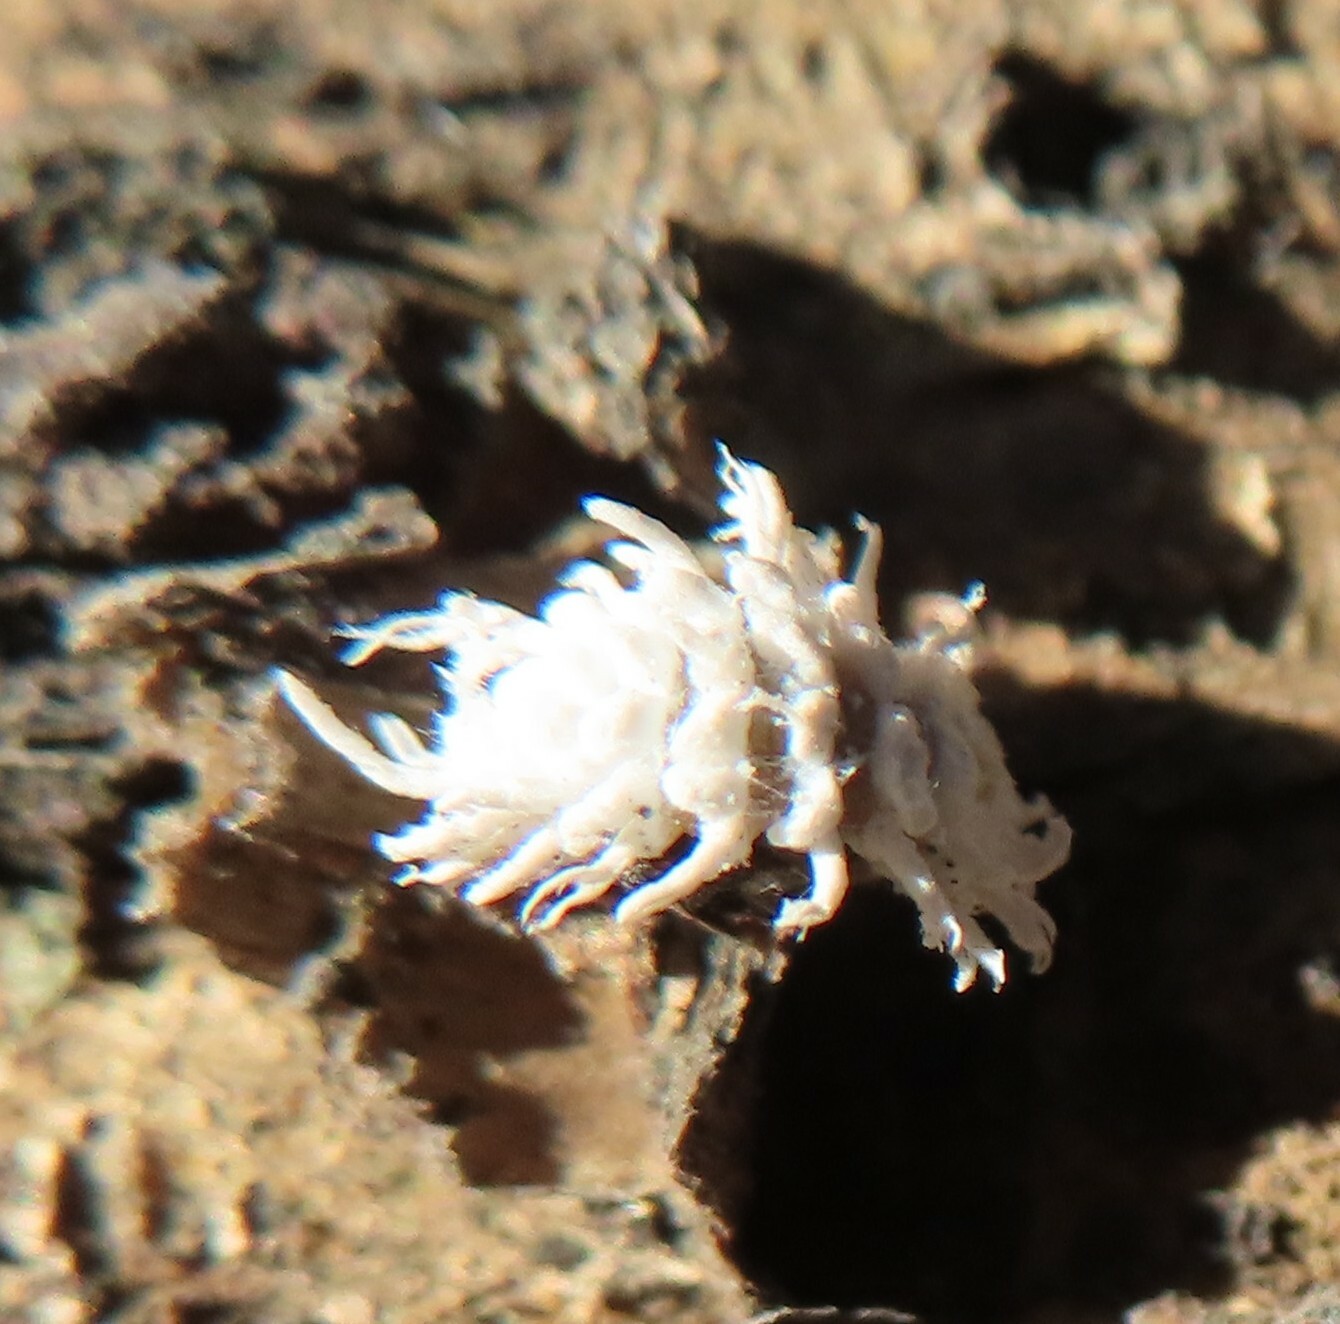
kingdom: Animalia
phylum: Arthropoda
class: Insecta
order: Coleoptera
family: Coccinellidae
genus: Cryptolaemus
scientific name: Cryptolaemus montrouzieri
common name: Mealybug destroyer
